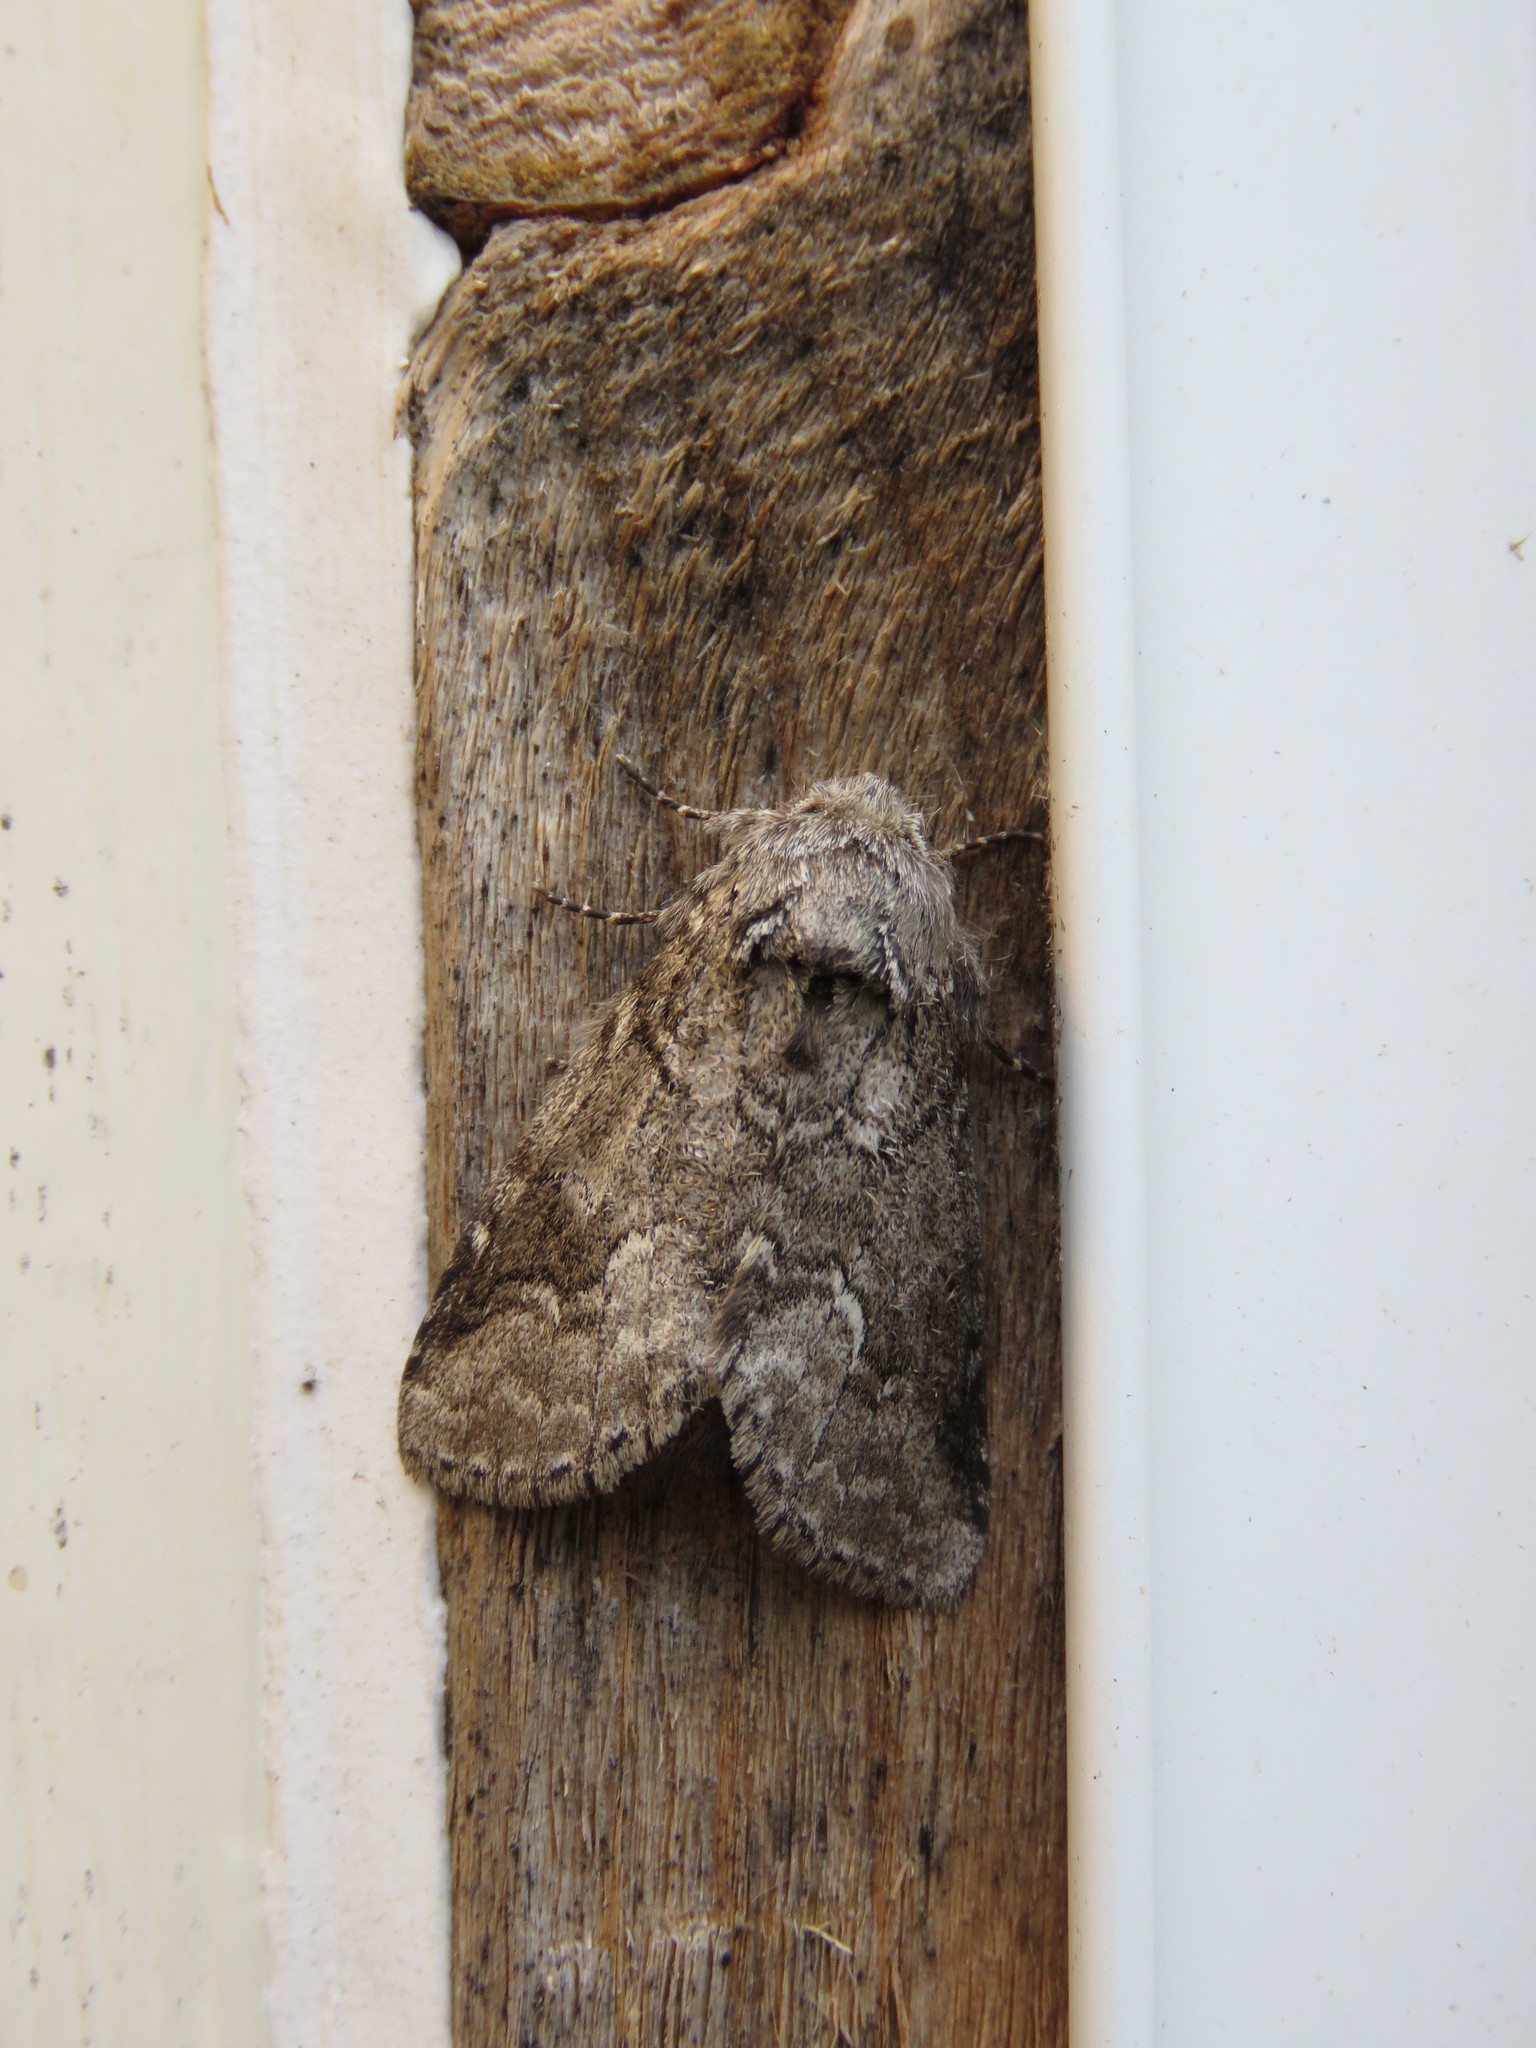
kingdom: Animalia
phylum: Arthropoda
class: Insecta
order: Lepidoptera
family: Notodontidae
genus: Lochmaeus
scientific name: Lochmaeus bilineata
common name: Double-lined prominent
